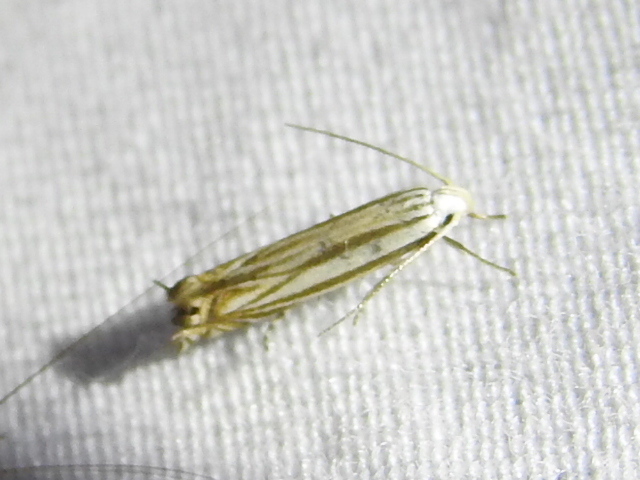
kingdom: Animalia
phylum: Arthropoda
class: Insecta
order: Lepidoptera
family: Gelechiidae
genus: Polyhymno
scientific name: Polyhymno luteostrigella
